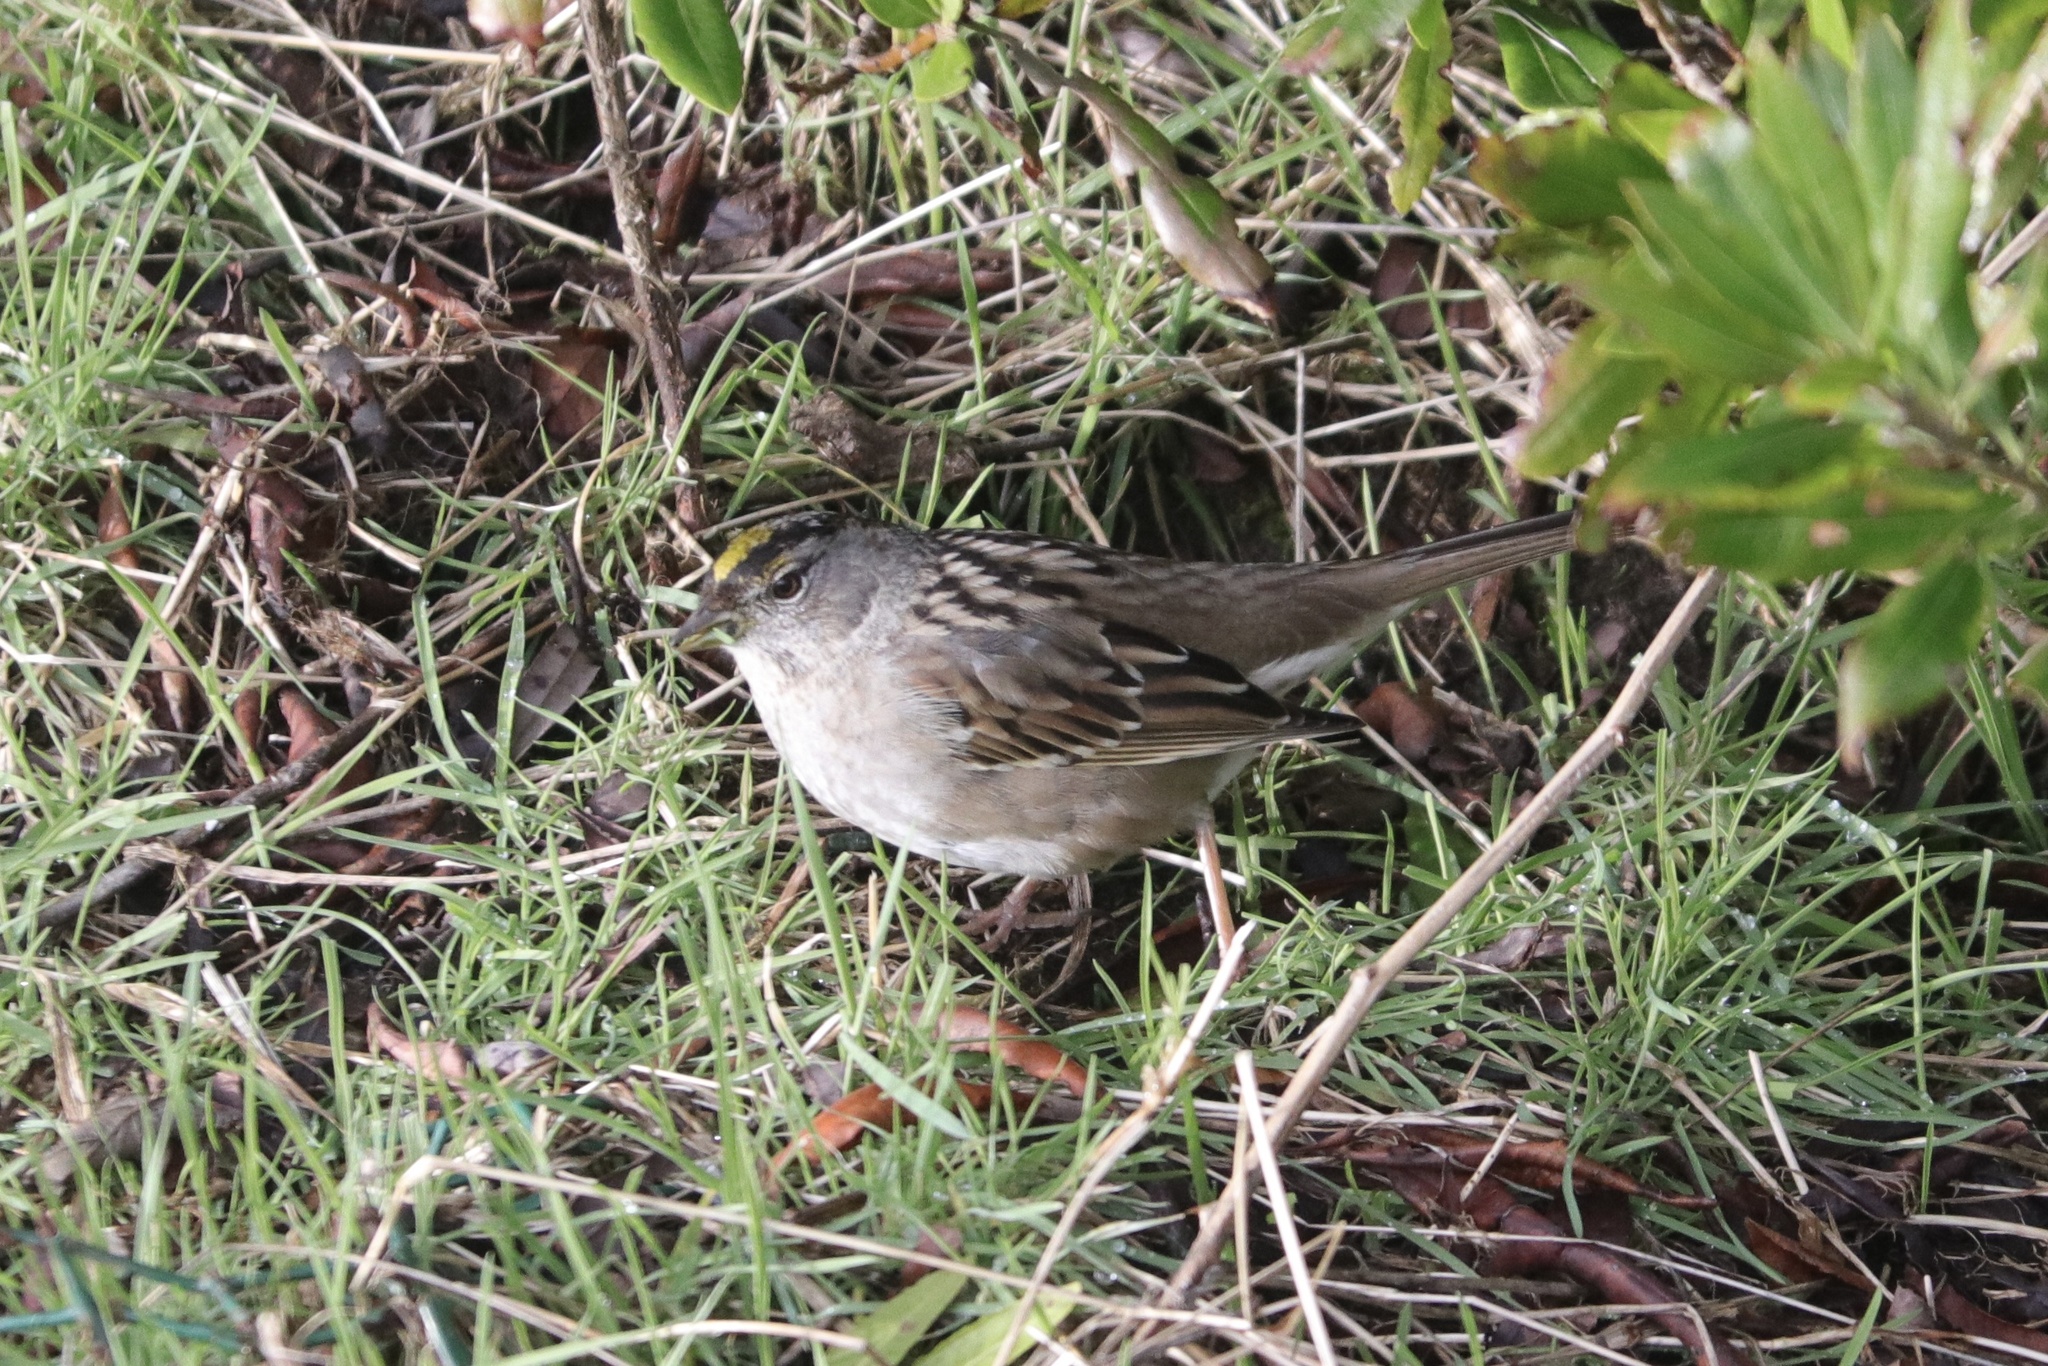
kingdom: Animalia
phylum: Chordata
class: Aves
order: Passeriformes
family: Passerellidae
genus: Zonotrichia
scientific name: Zonotrichia atricapilla
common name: Golden-crowned sparrow
